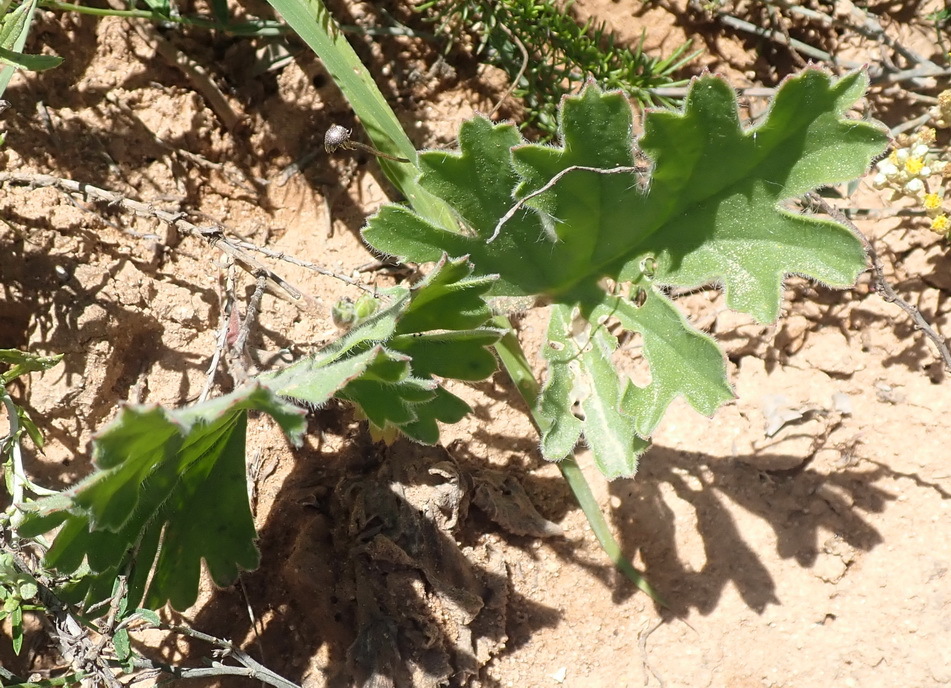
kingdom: Plantae
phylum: Tracheophyta
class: Magnoliopsida
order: Geraniales
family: Geraniaceae
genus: Pelargonium
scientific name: Pelargonium pulverulentum
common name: Powdered-leaf pelargonium
